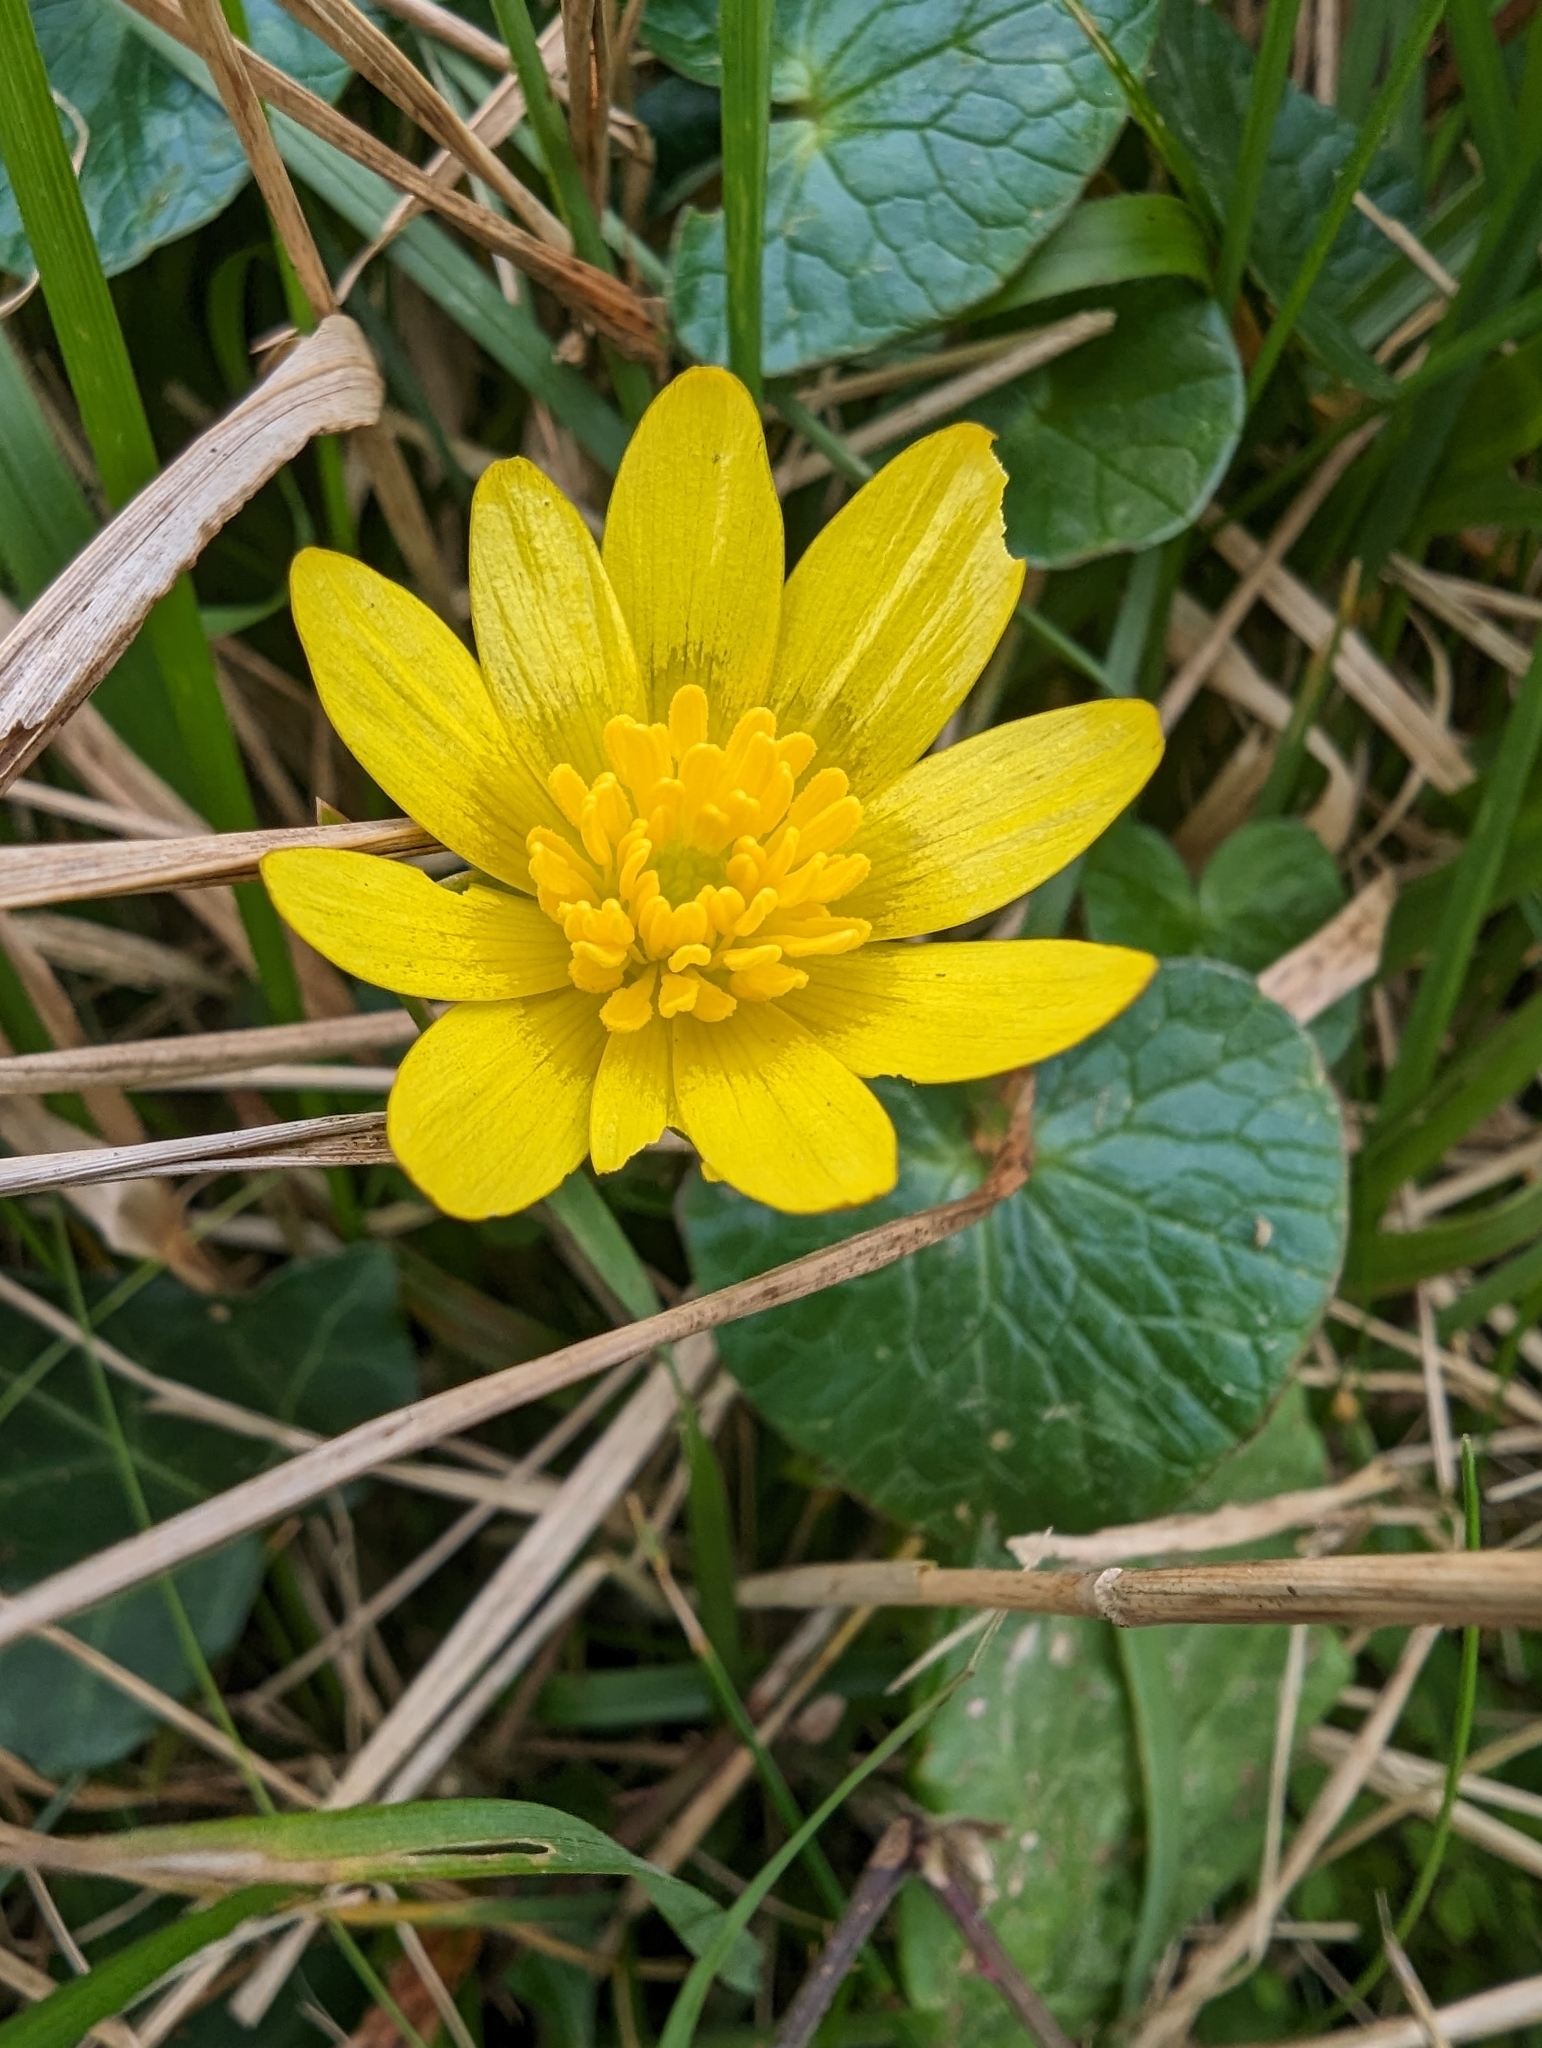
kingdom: Plantae
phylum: Tracheophyta
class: Magnoliopsida
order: Ranunculales
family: Ranunculaceae
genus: Ficaria
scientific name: Ficaria verna
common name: Lesser celandine
